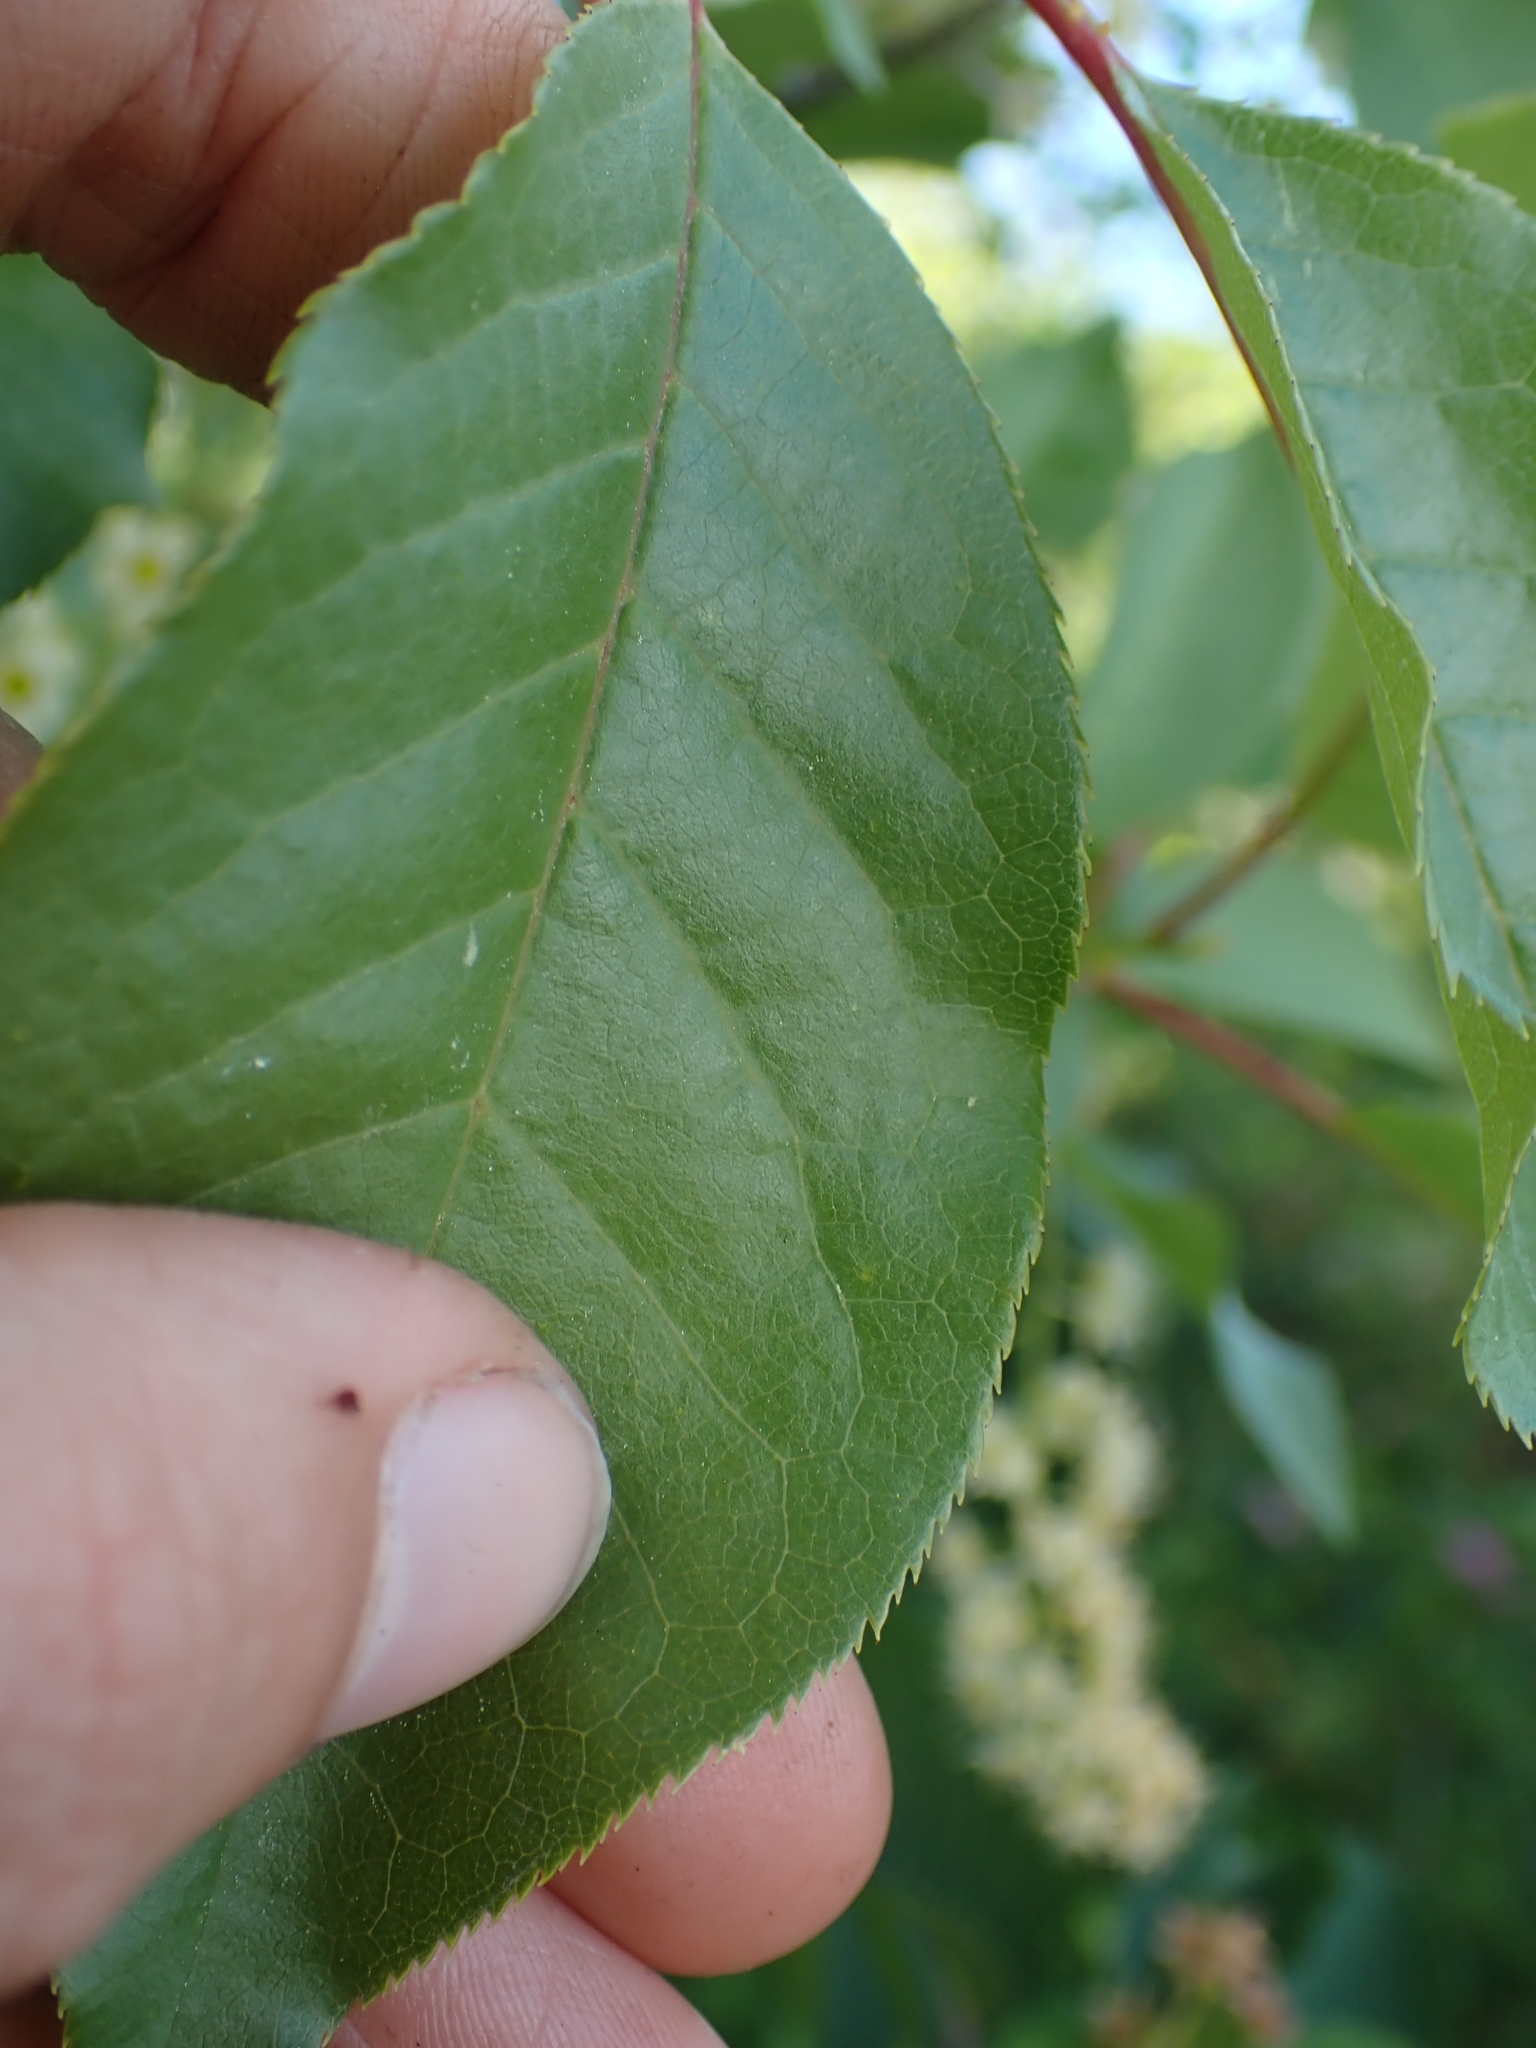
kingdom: Plantae
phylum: Tracheophyta
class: Magnoliopsida
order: Rosales
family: Rosaceae
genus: Prunus
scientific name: Prunus virginiana
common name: Chokecherry
